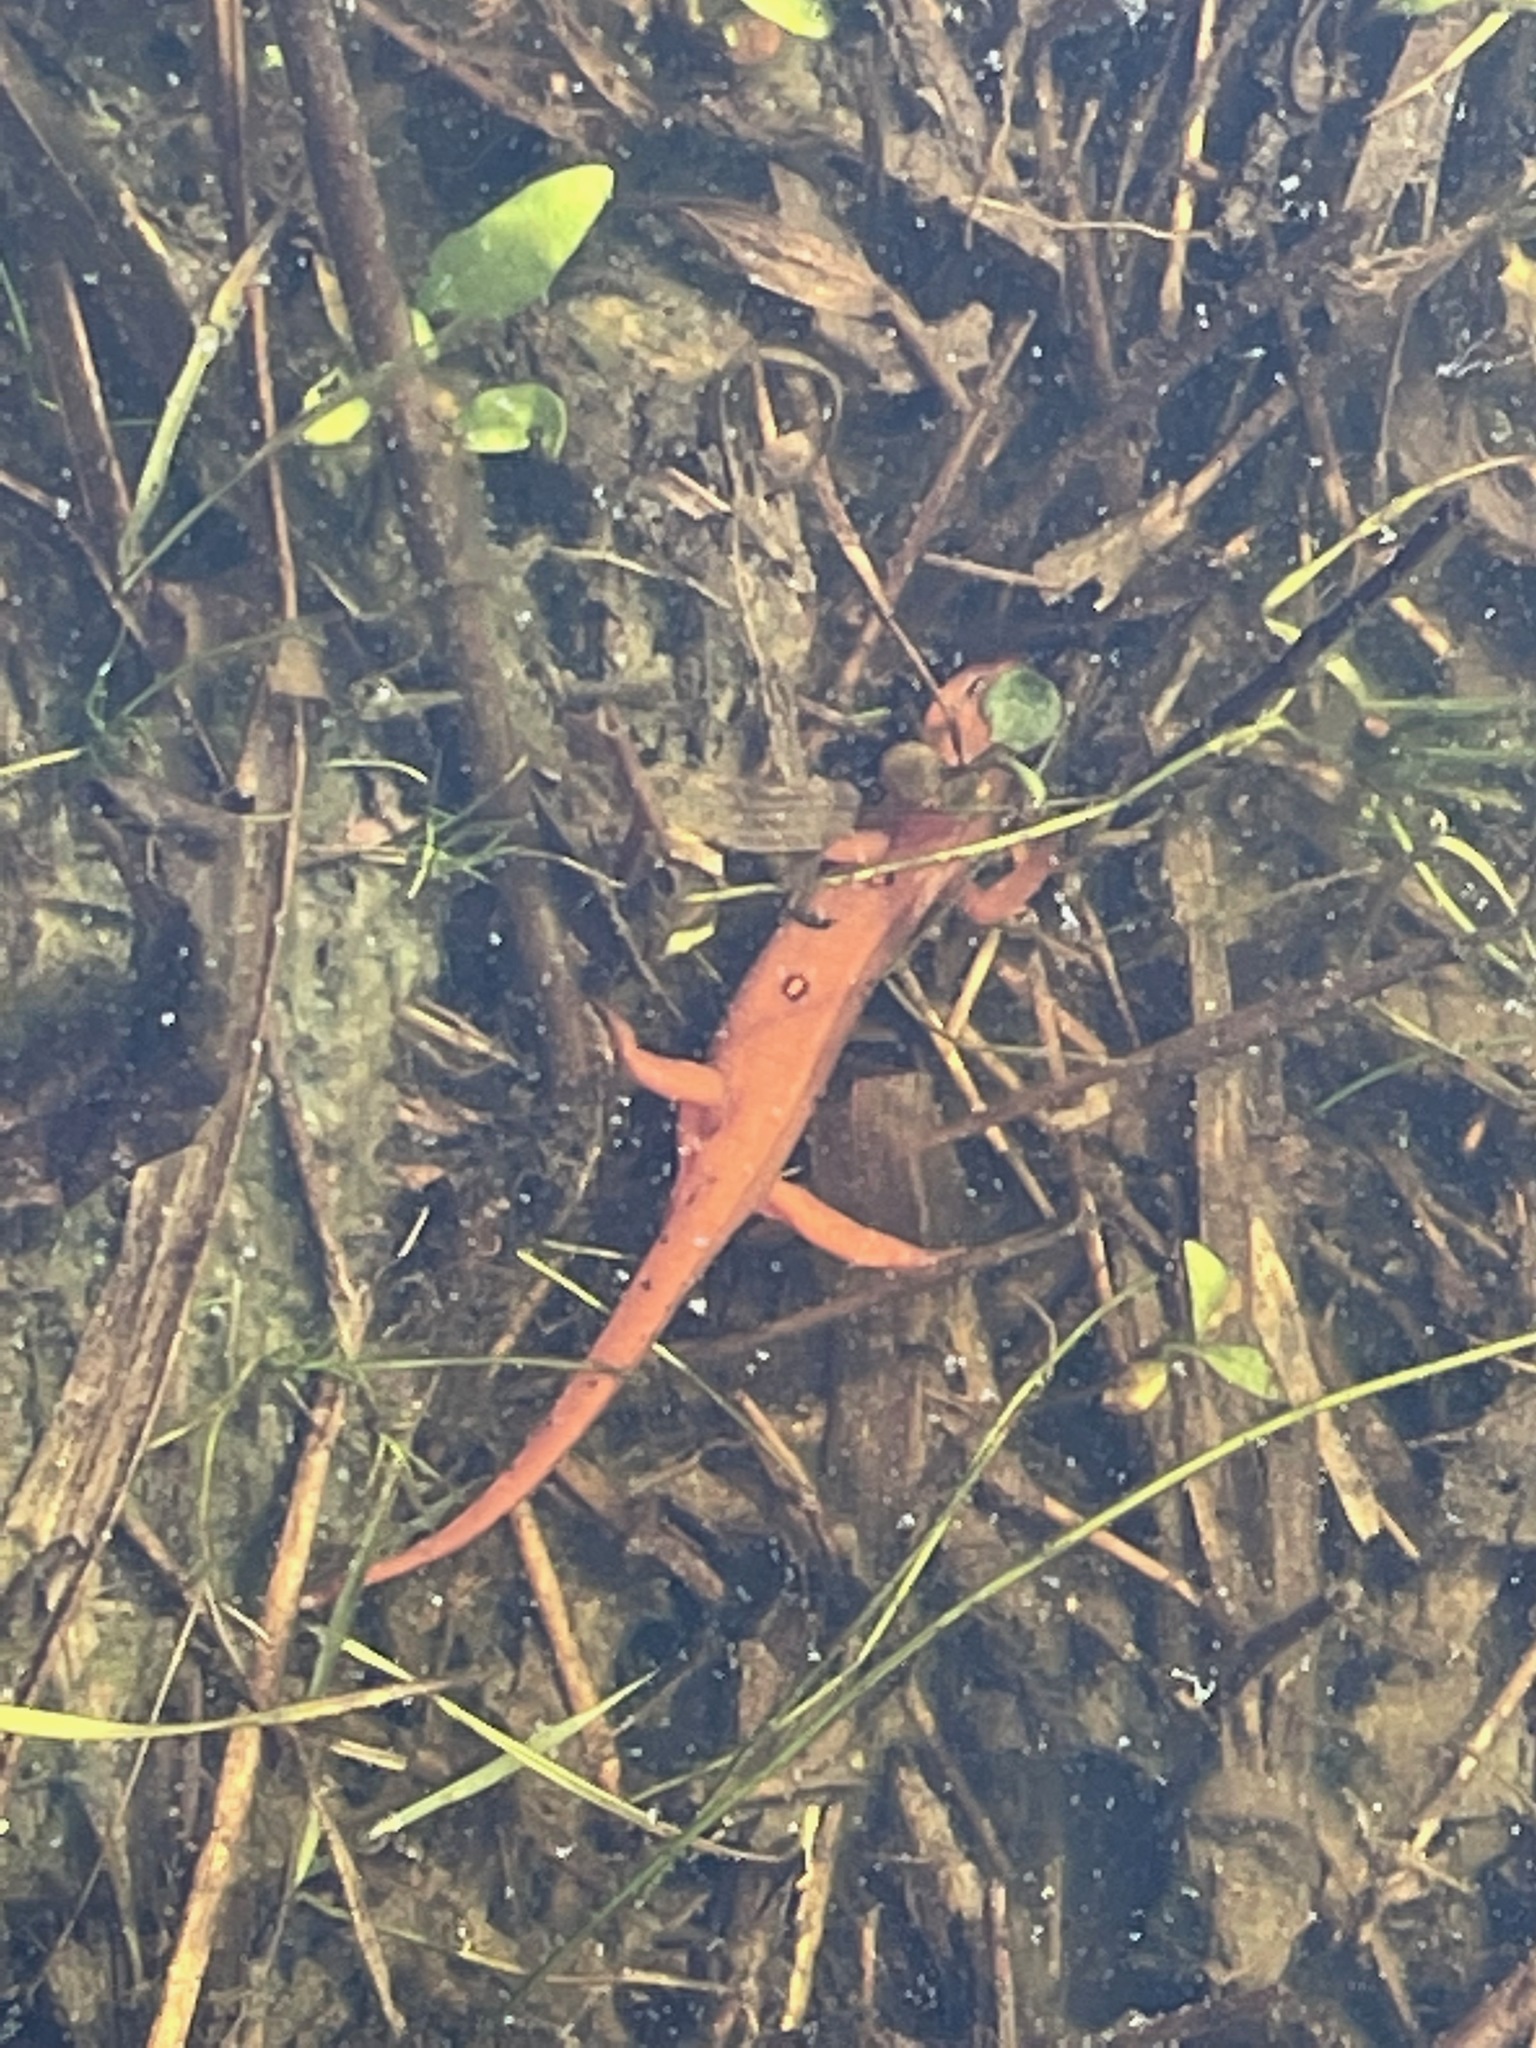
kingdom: Animalia
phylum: Chordata
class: Amphibia
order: Caudata
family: Salamandridae
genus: Notophthalmus
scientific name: Notophthalmus viridescens
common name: Eastern newt
